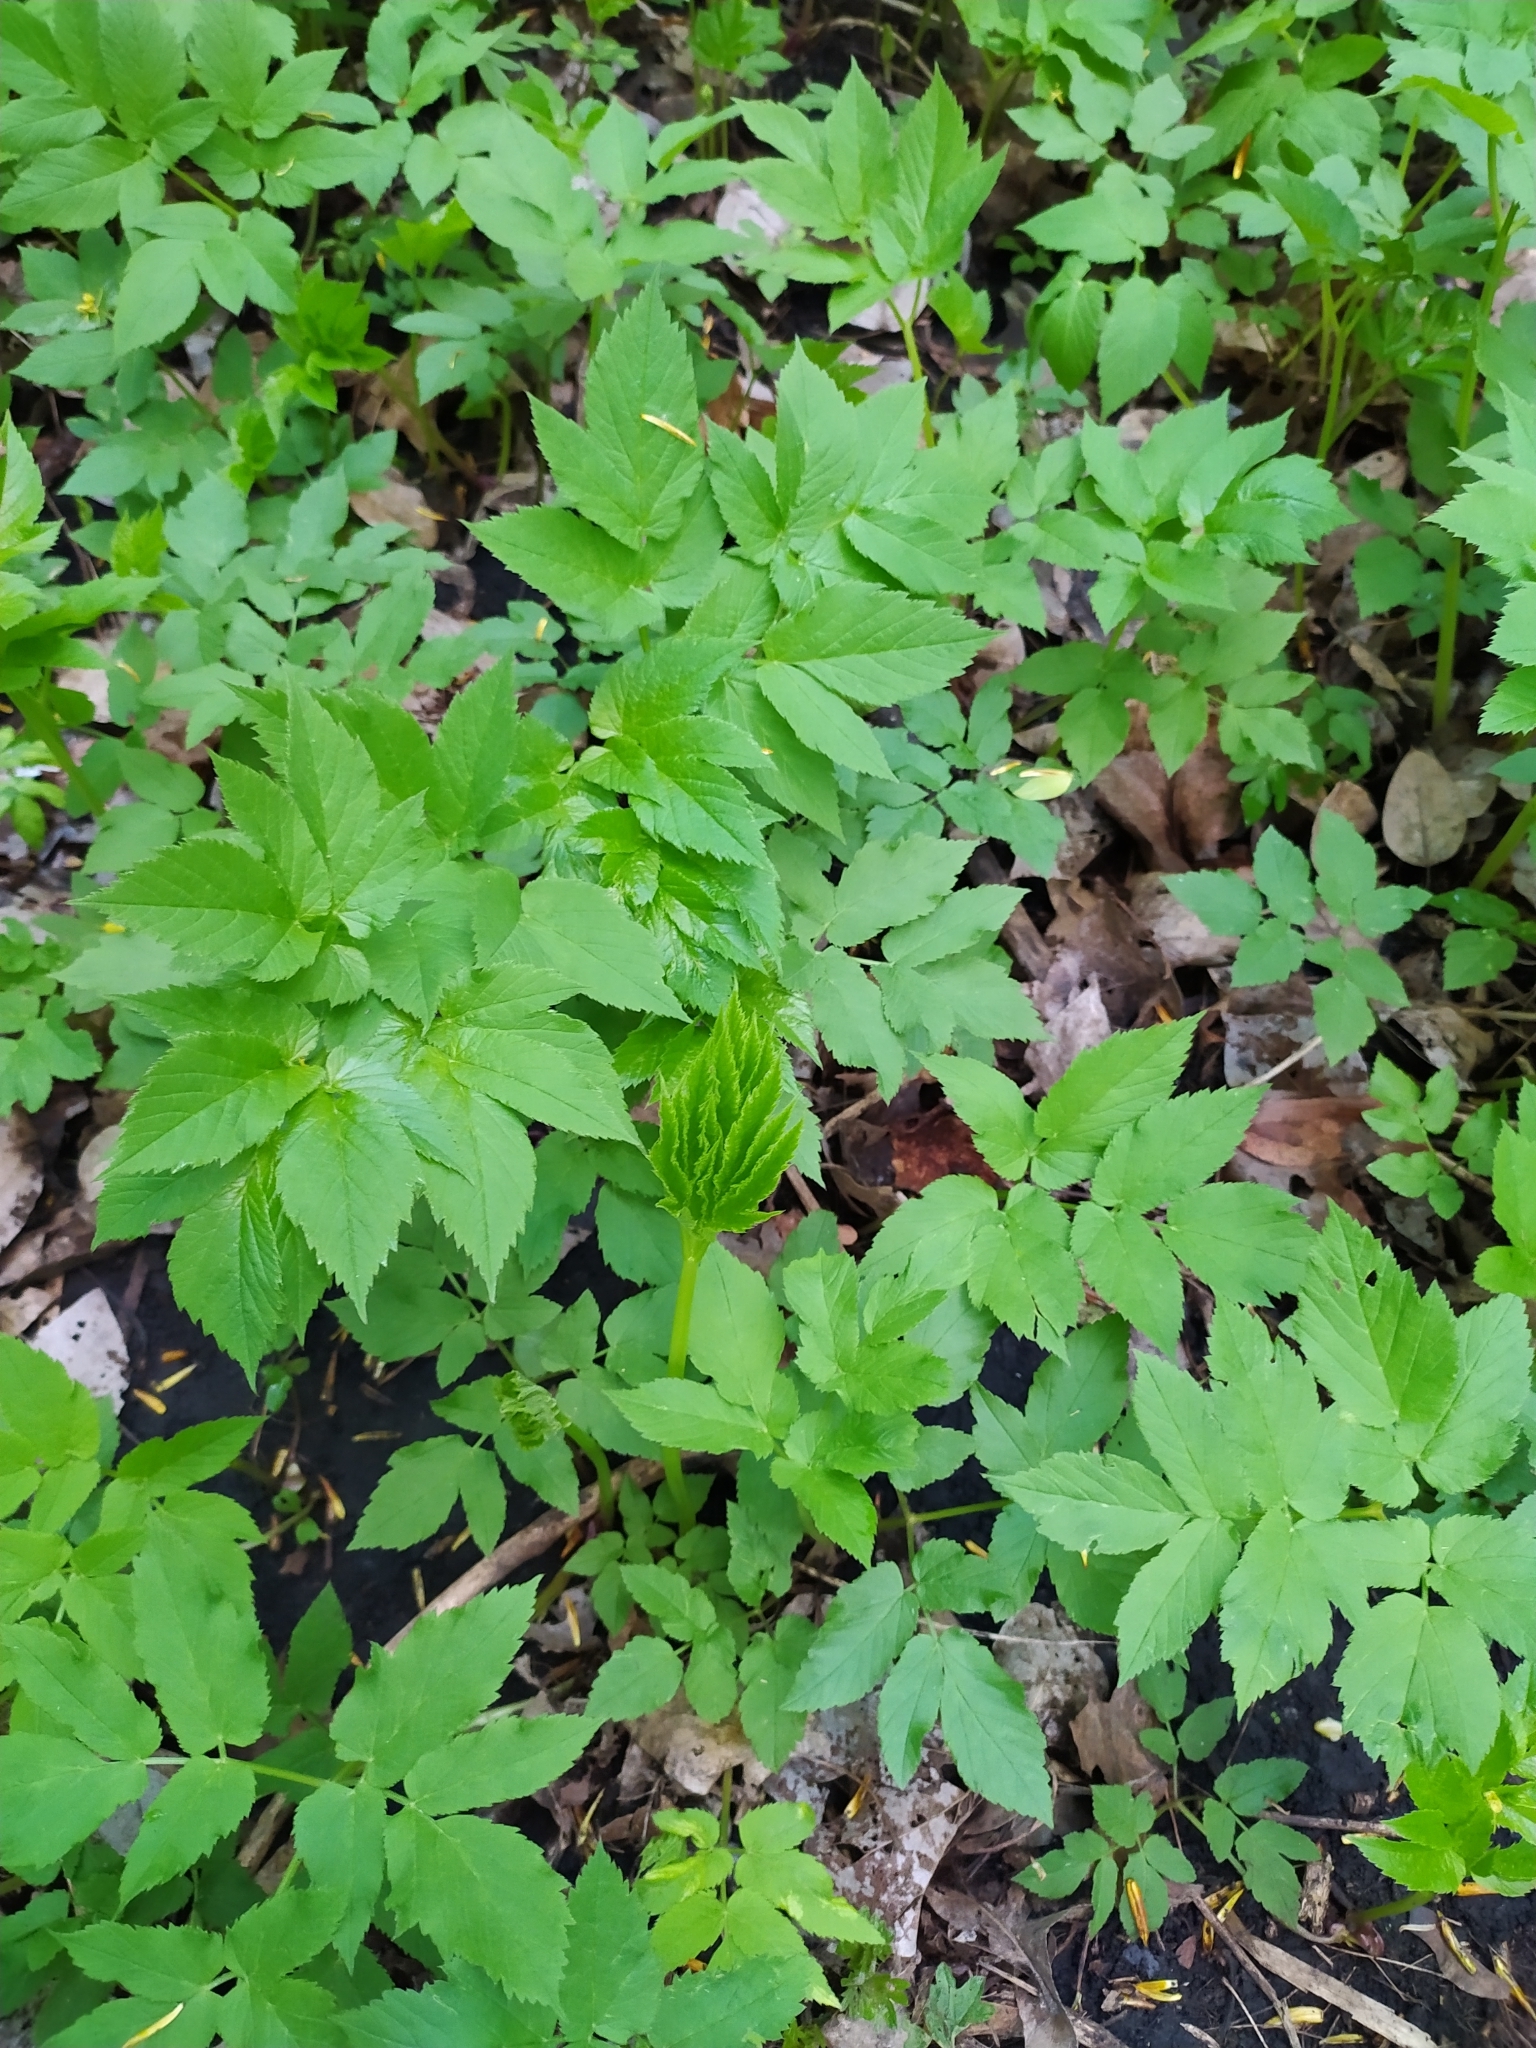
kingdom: Plantae
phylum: Tracheophyta
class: Magnoliopsida
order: Apiales
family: Apiaceae
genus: Aegopodium
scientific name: Aegopodium podagraria
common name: Ground-elder
